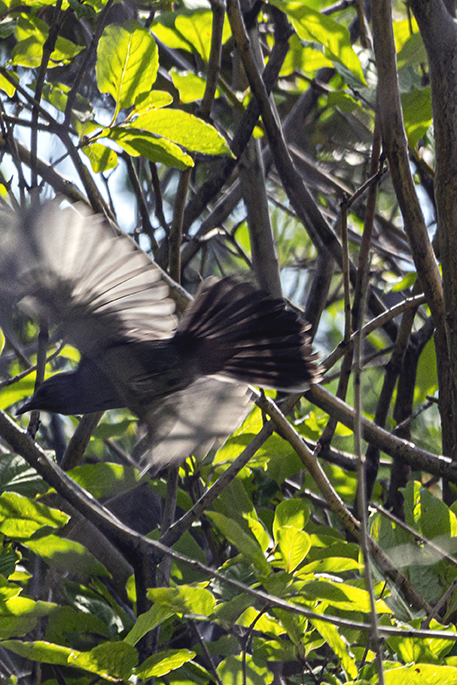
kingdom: Animalia
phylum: Chordata
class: Aves
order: Passeriformes
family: Mimidae
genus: Dumetella
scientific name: Dumetella carolinensis
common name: Gray catbird
